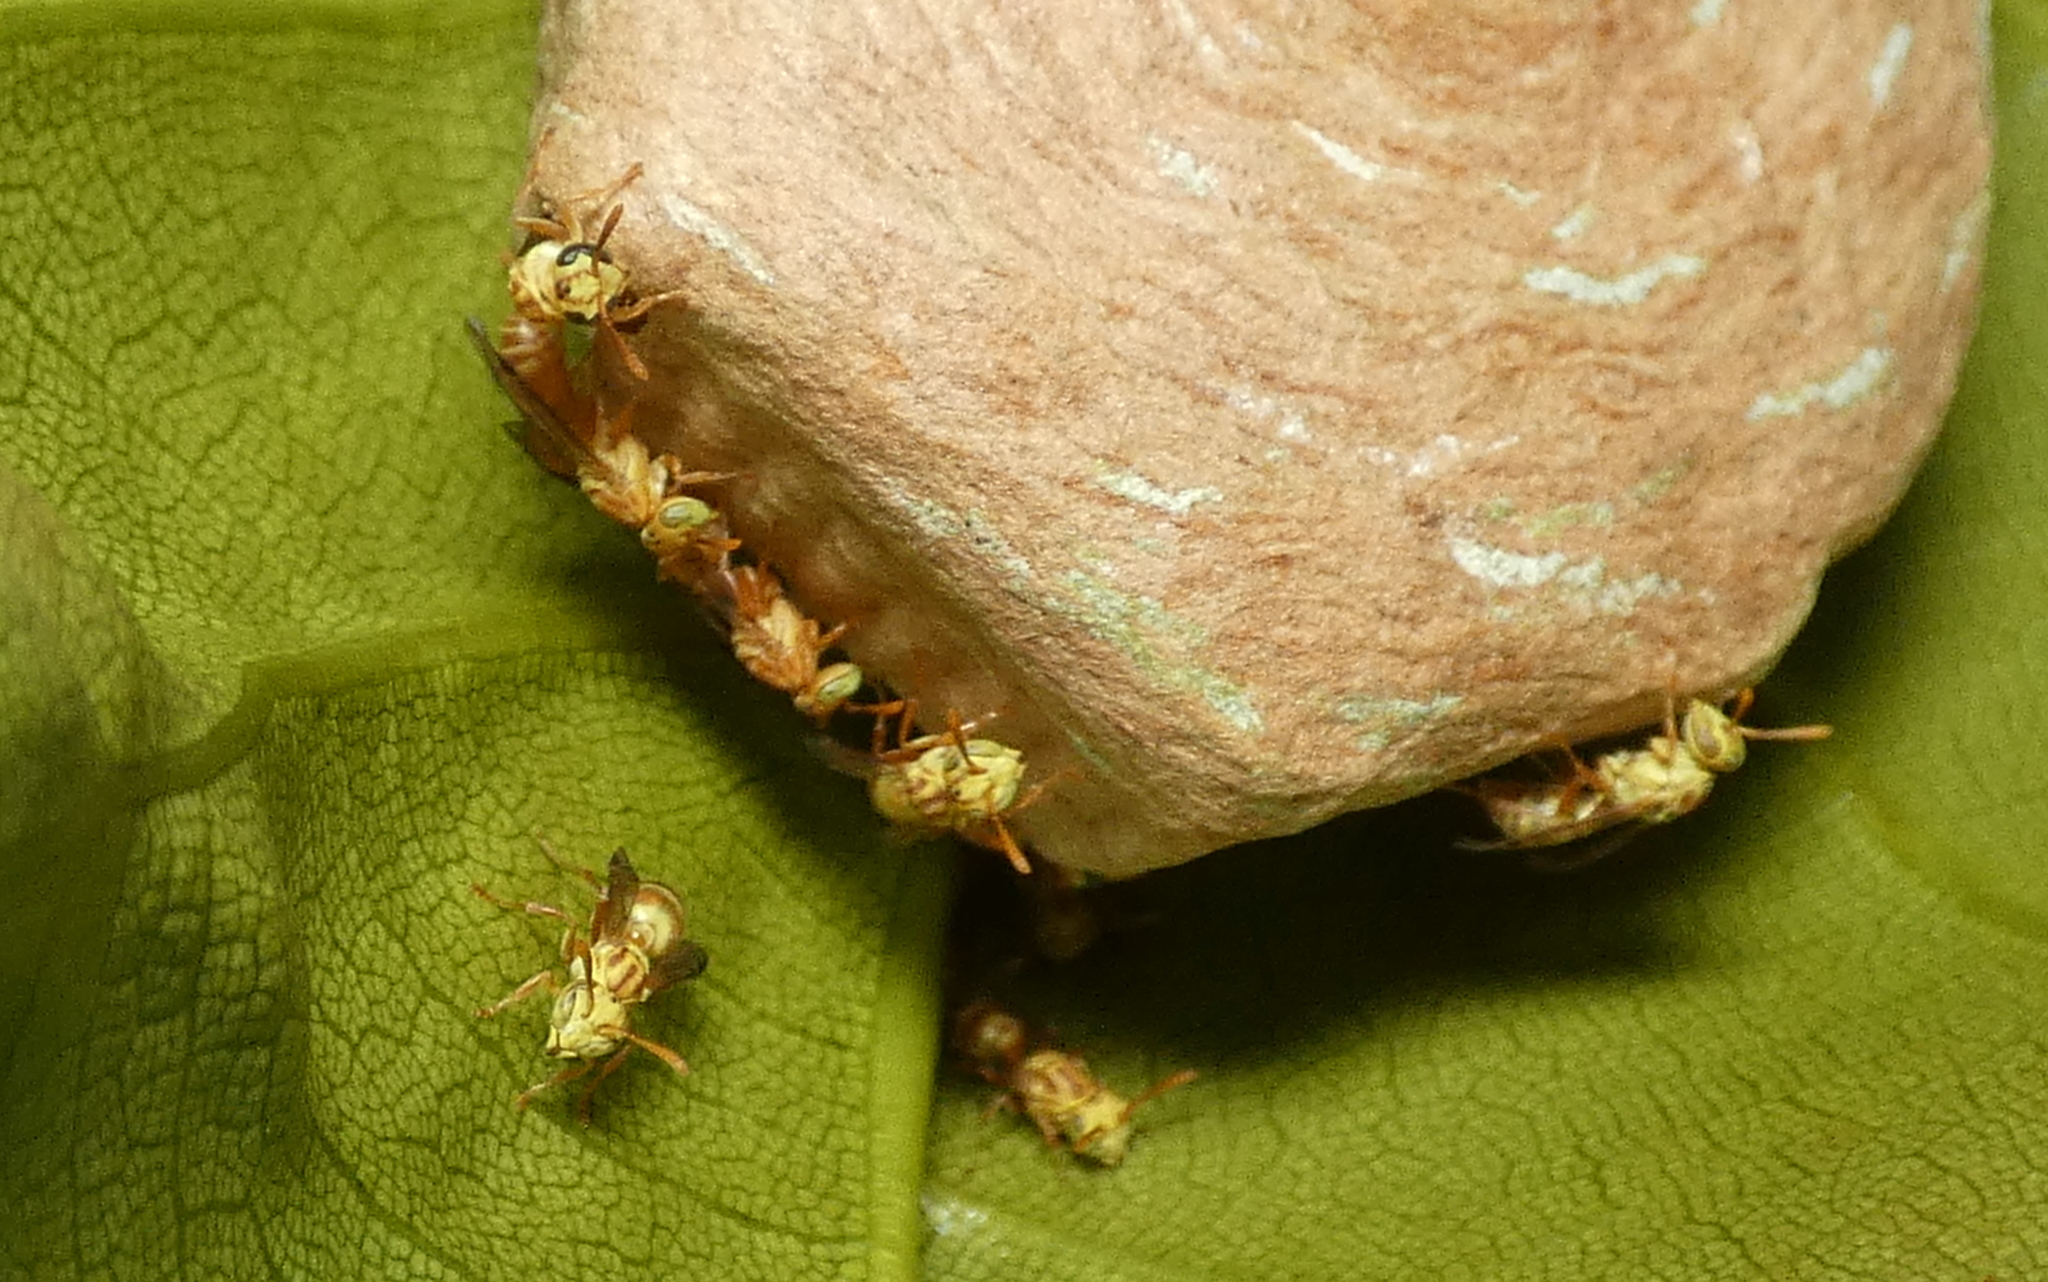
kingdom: Animalia
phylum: Arthropoda
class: Insecta
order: Hymenoptera
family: Vespidae
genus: Protopolybia
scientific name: Protopolybia potiguara
